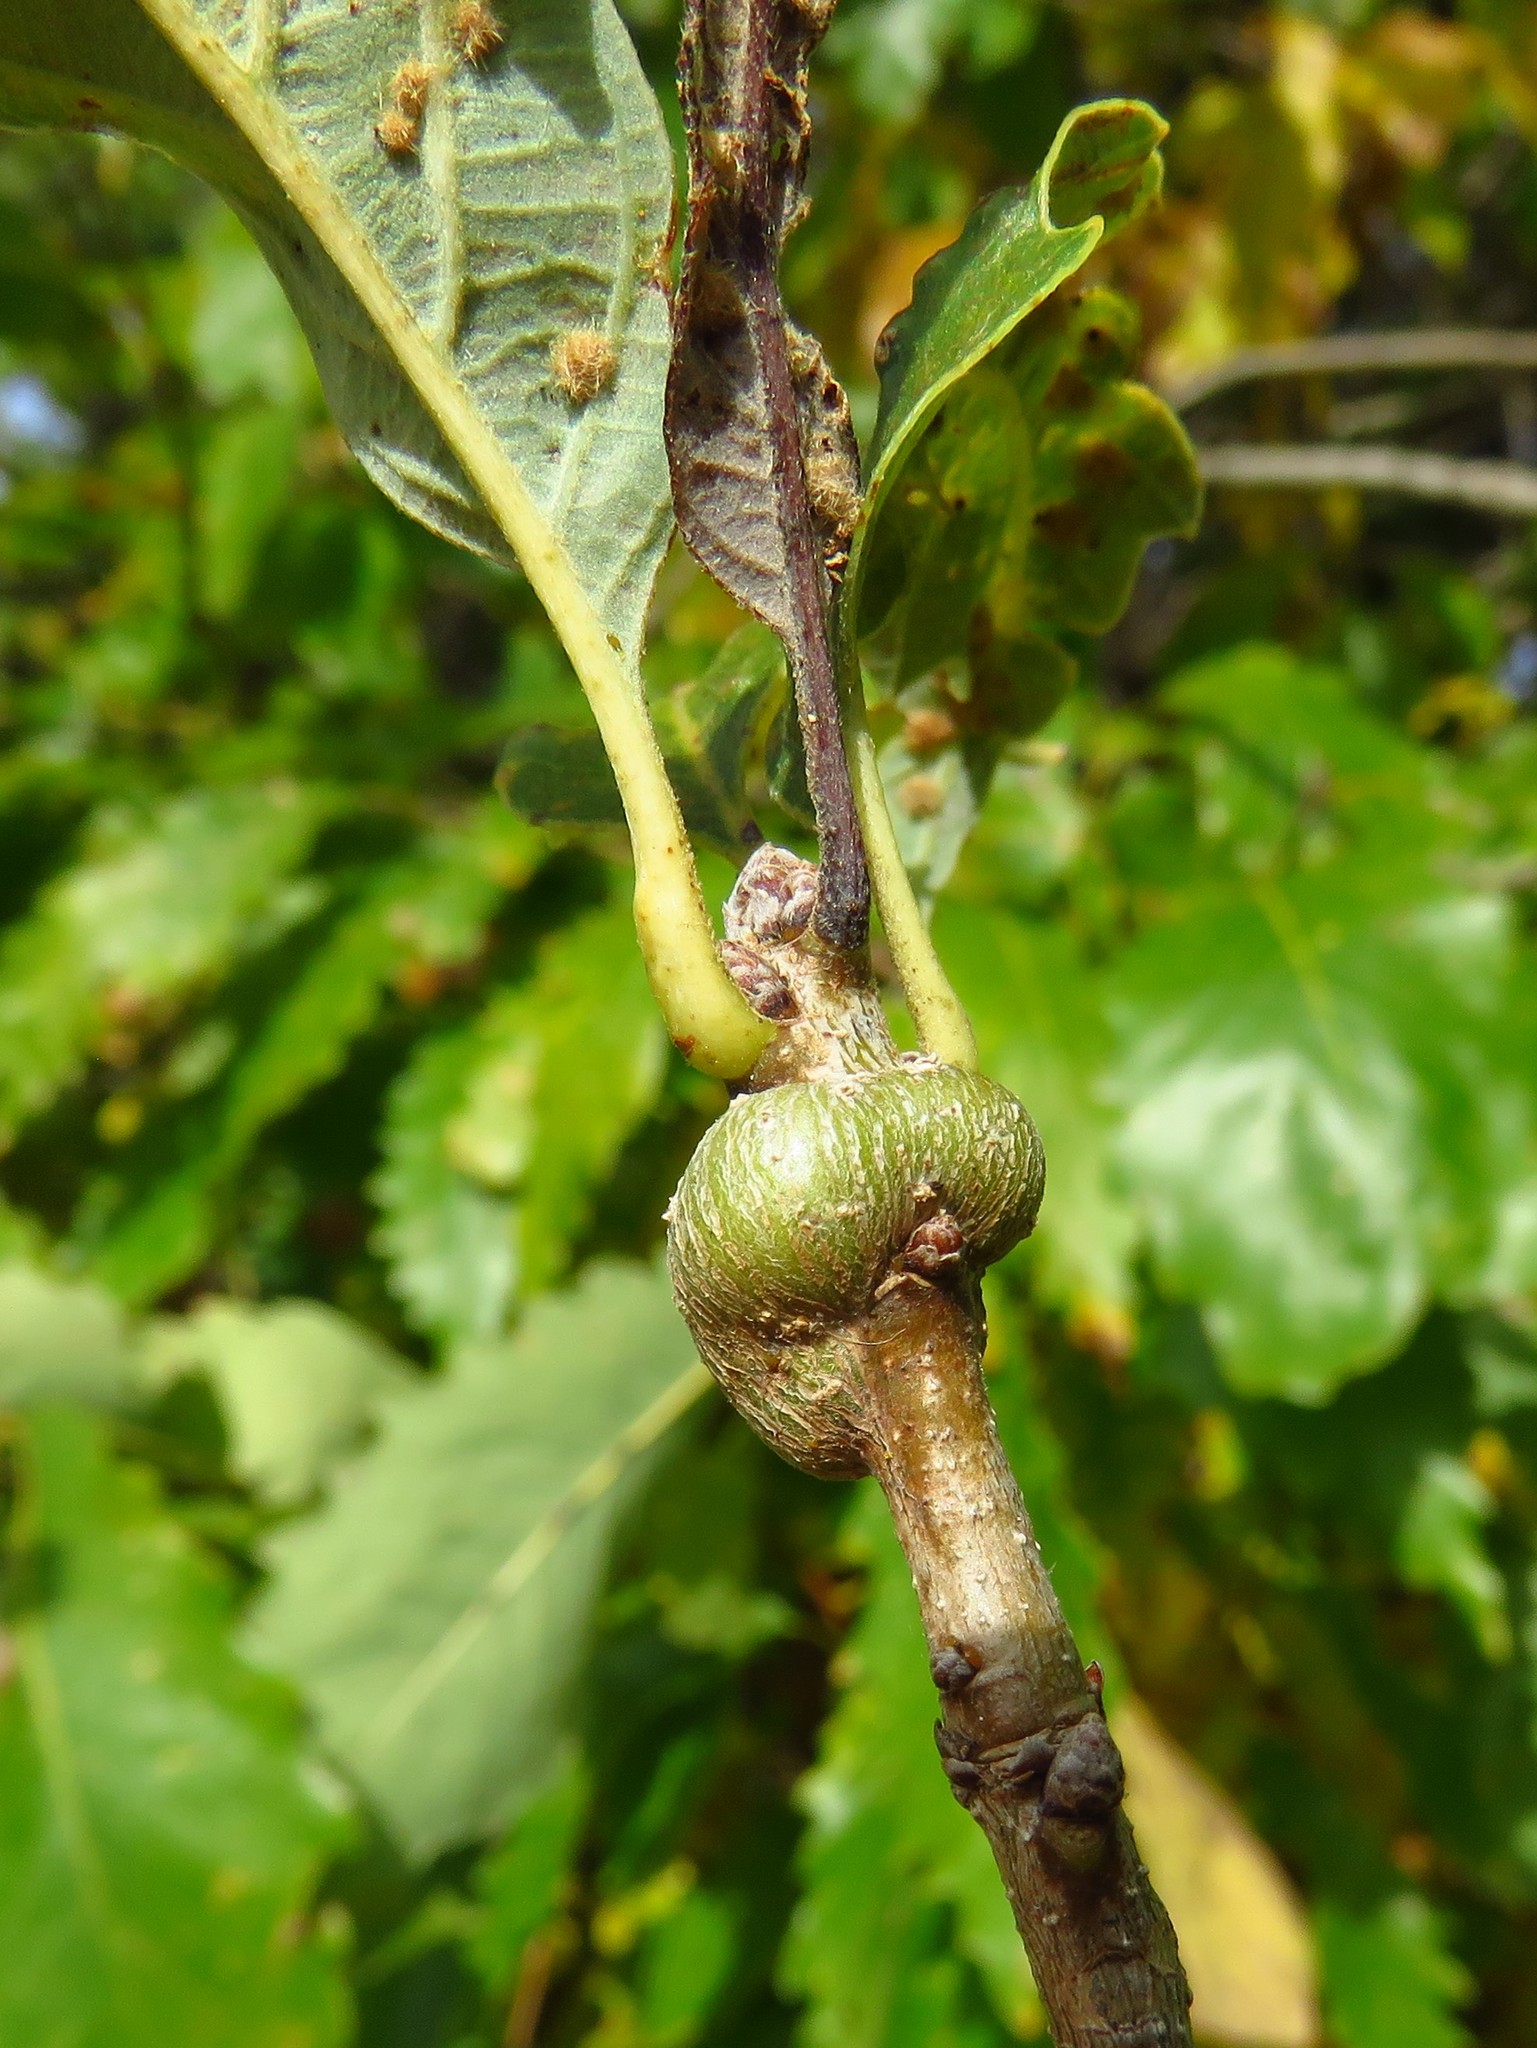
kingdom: Animalia
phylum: Arthropoda
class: Insecta
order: Hymenoptera
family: Cynipidae
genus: Neuroterus
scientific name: Neuroterus
